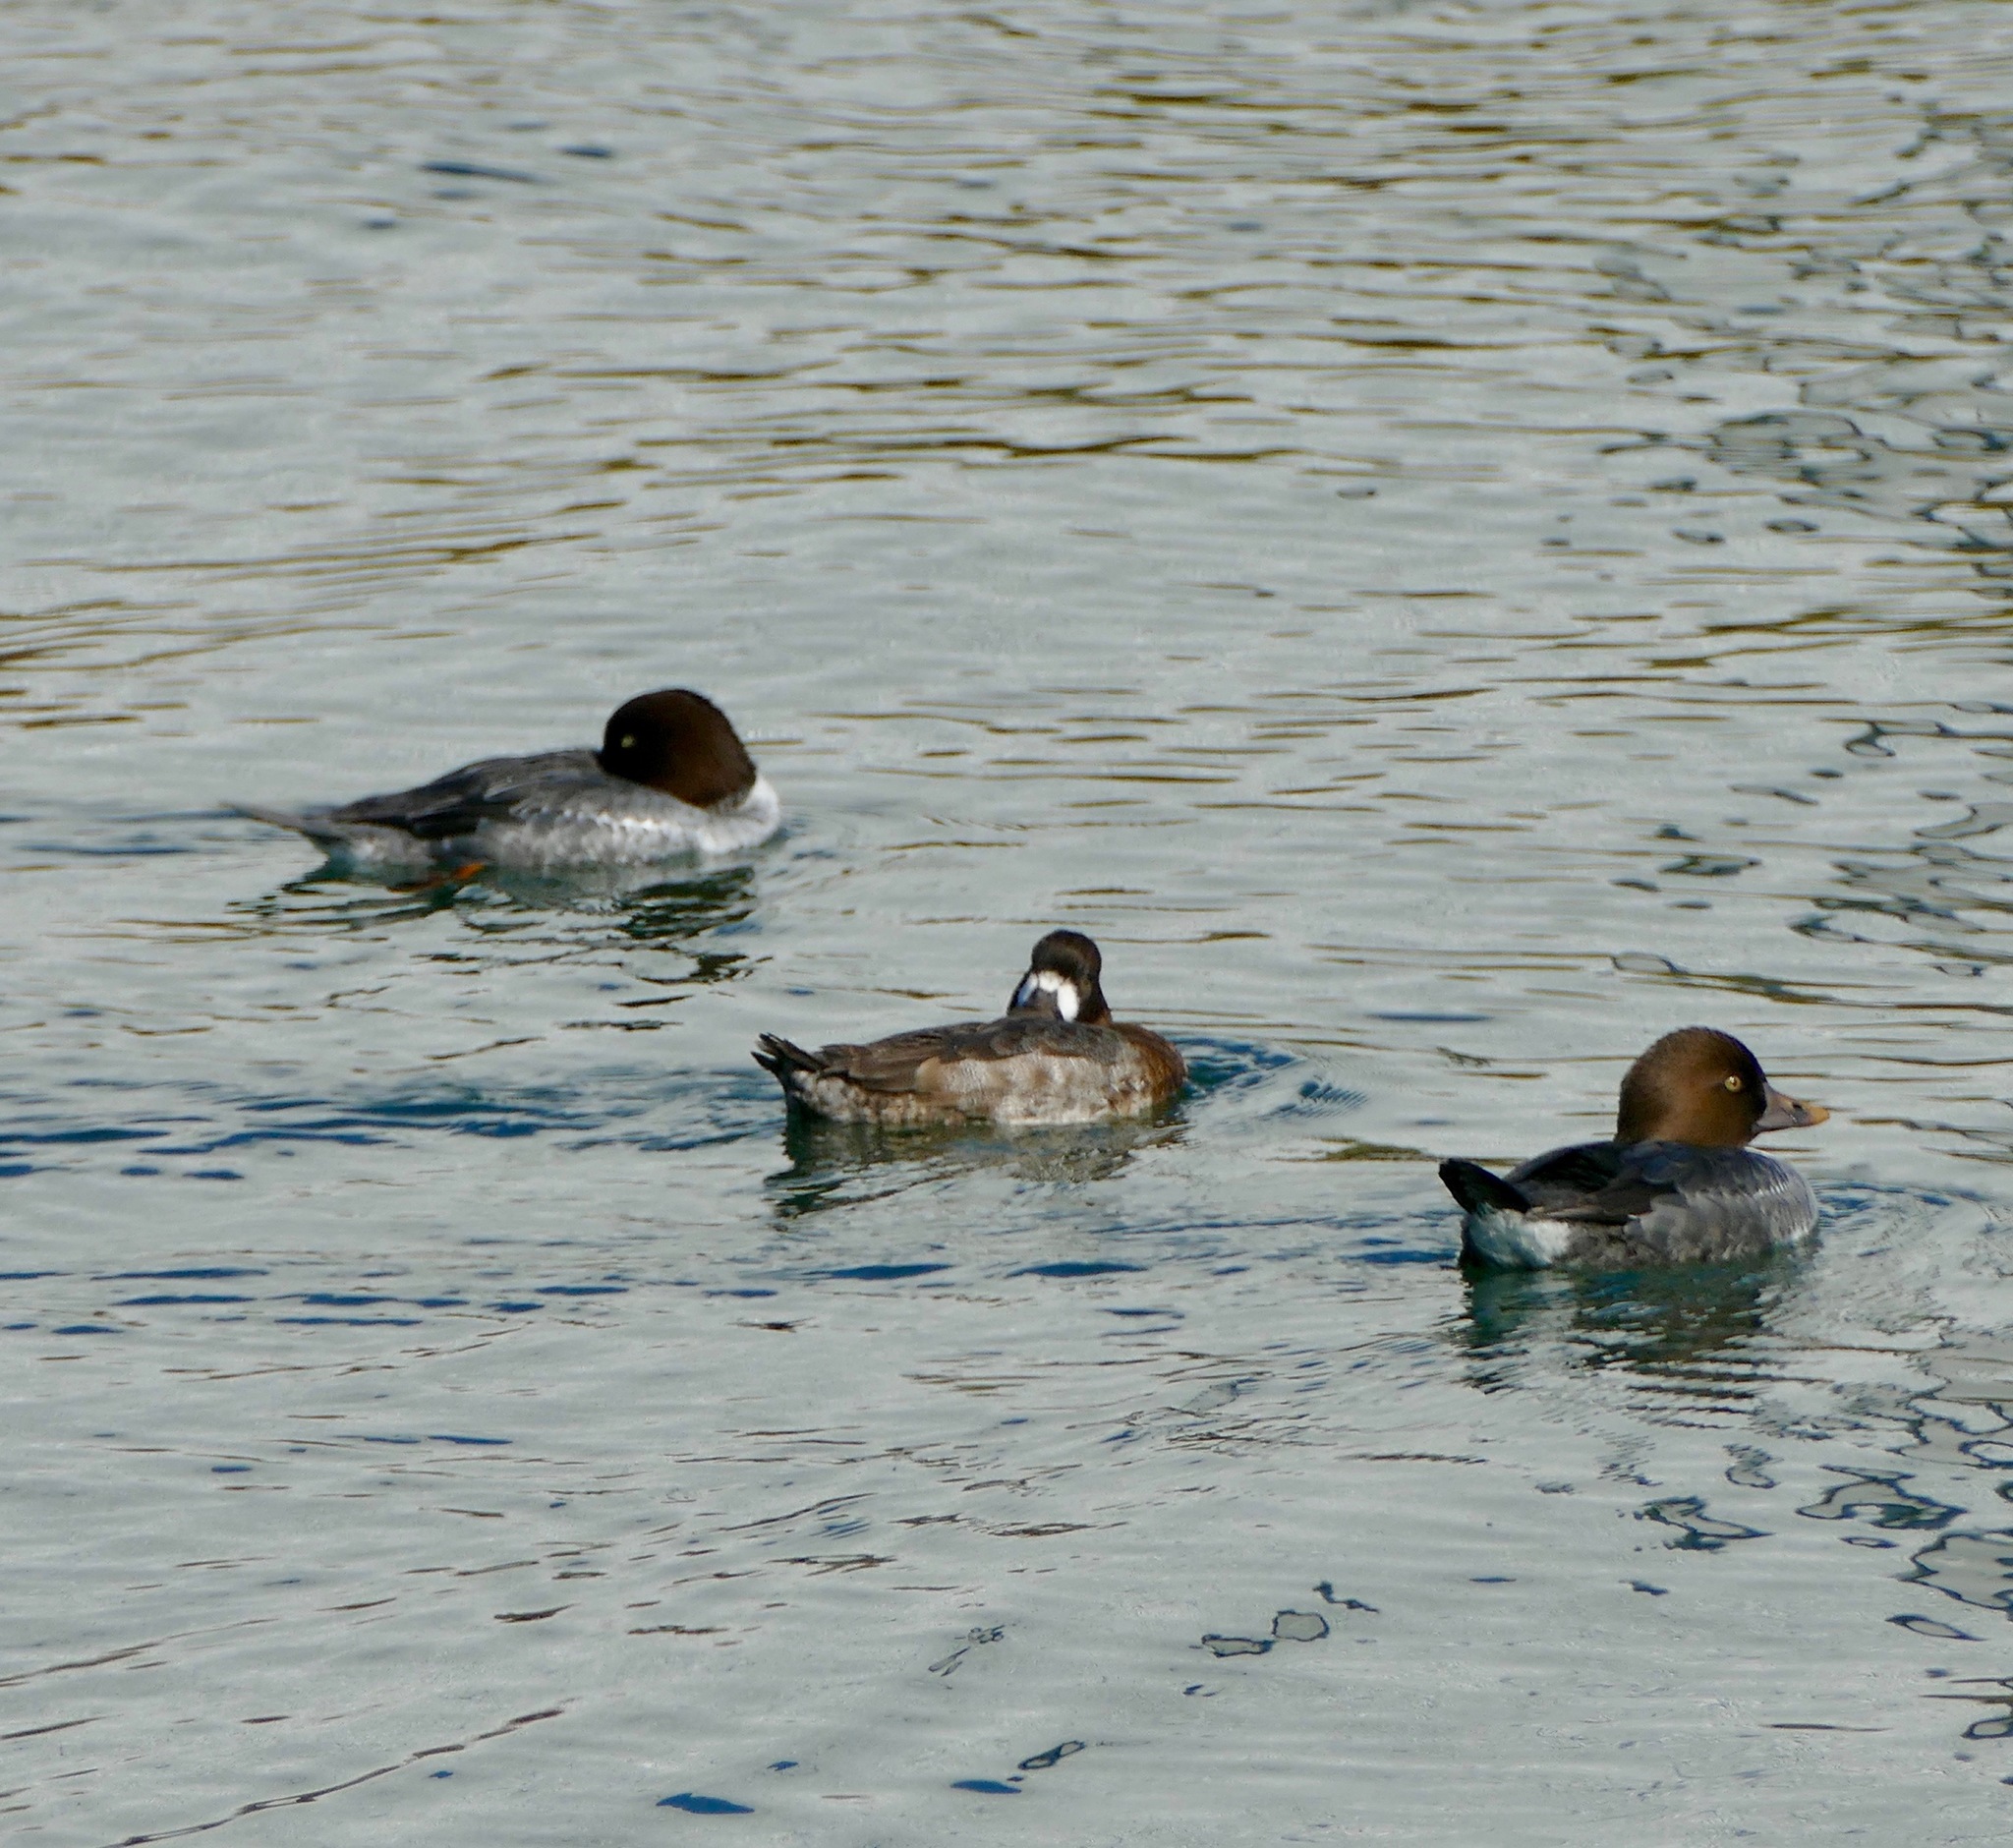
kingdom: Animalia
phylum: Chordata
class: Aves
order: Anseriformes
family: Anatidae
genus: Bucephala
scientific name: Bucephala clangula
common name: Common goldeneye
